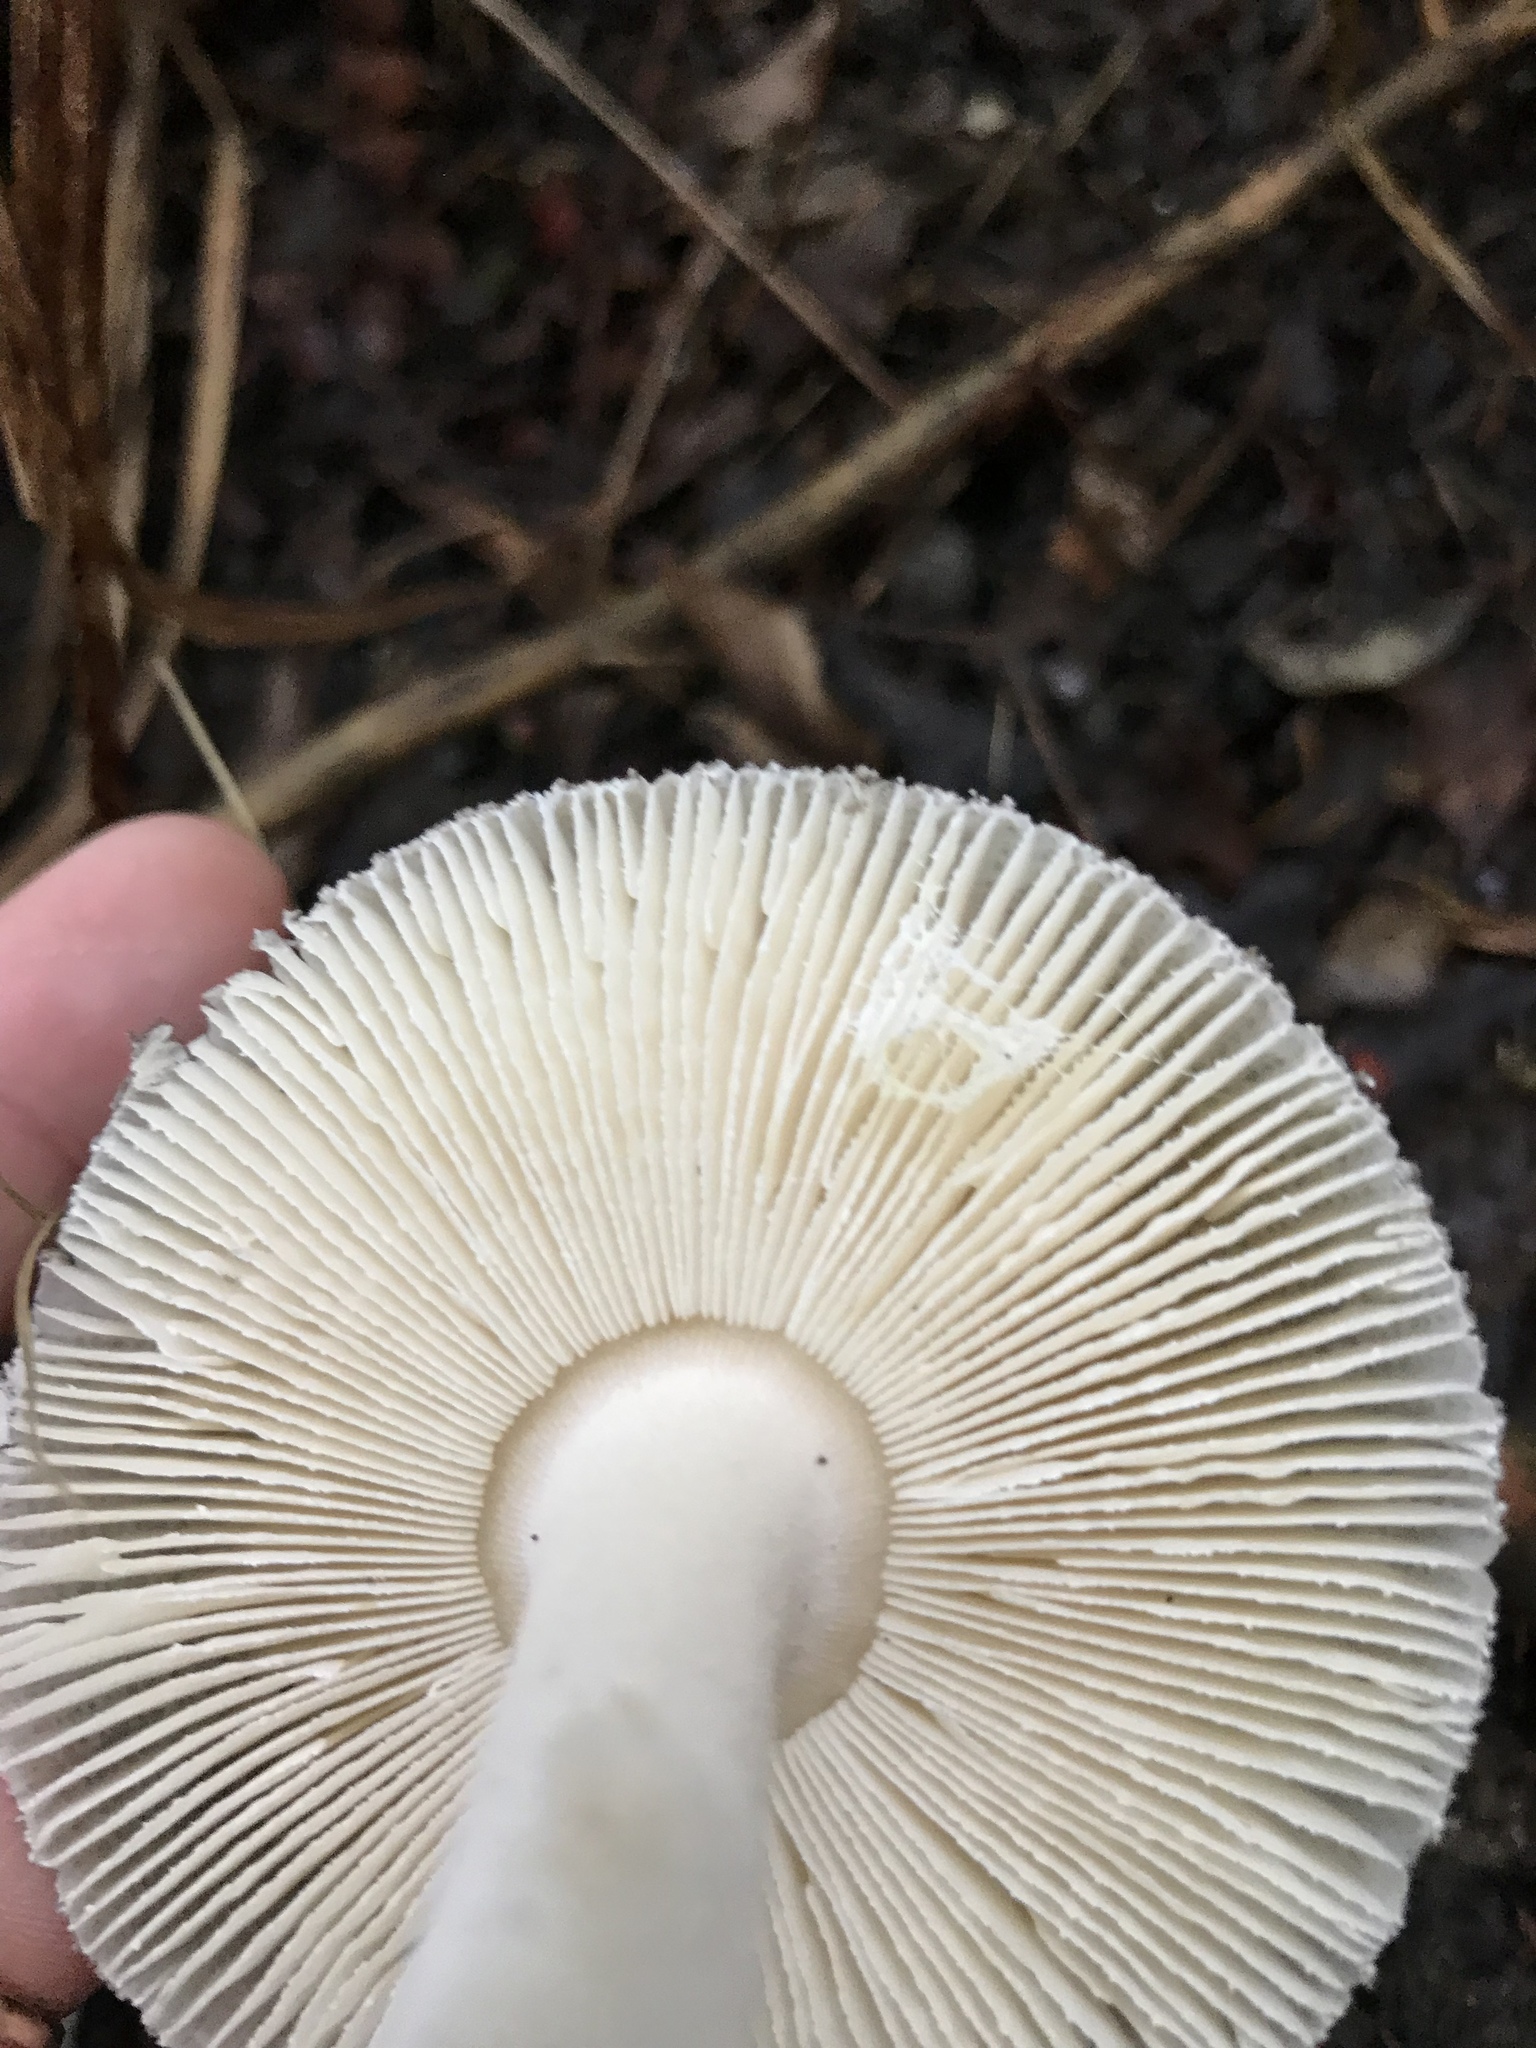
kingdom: Fungi
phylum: Basidiomycota
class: Agaricomycetes
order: Agaricales
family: Amanitaceae
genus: Amanita
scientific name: Amanita nehuta
